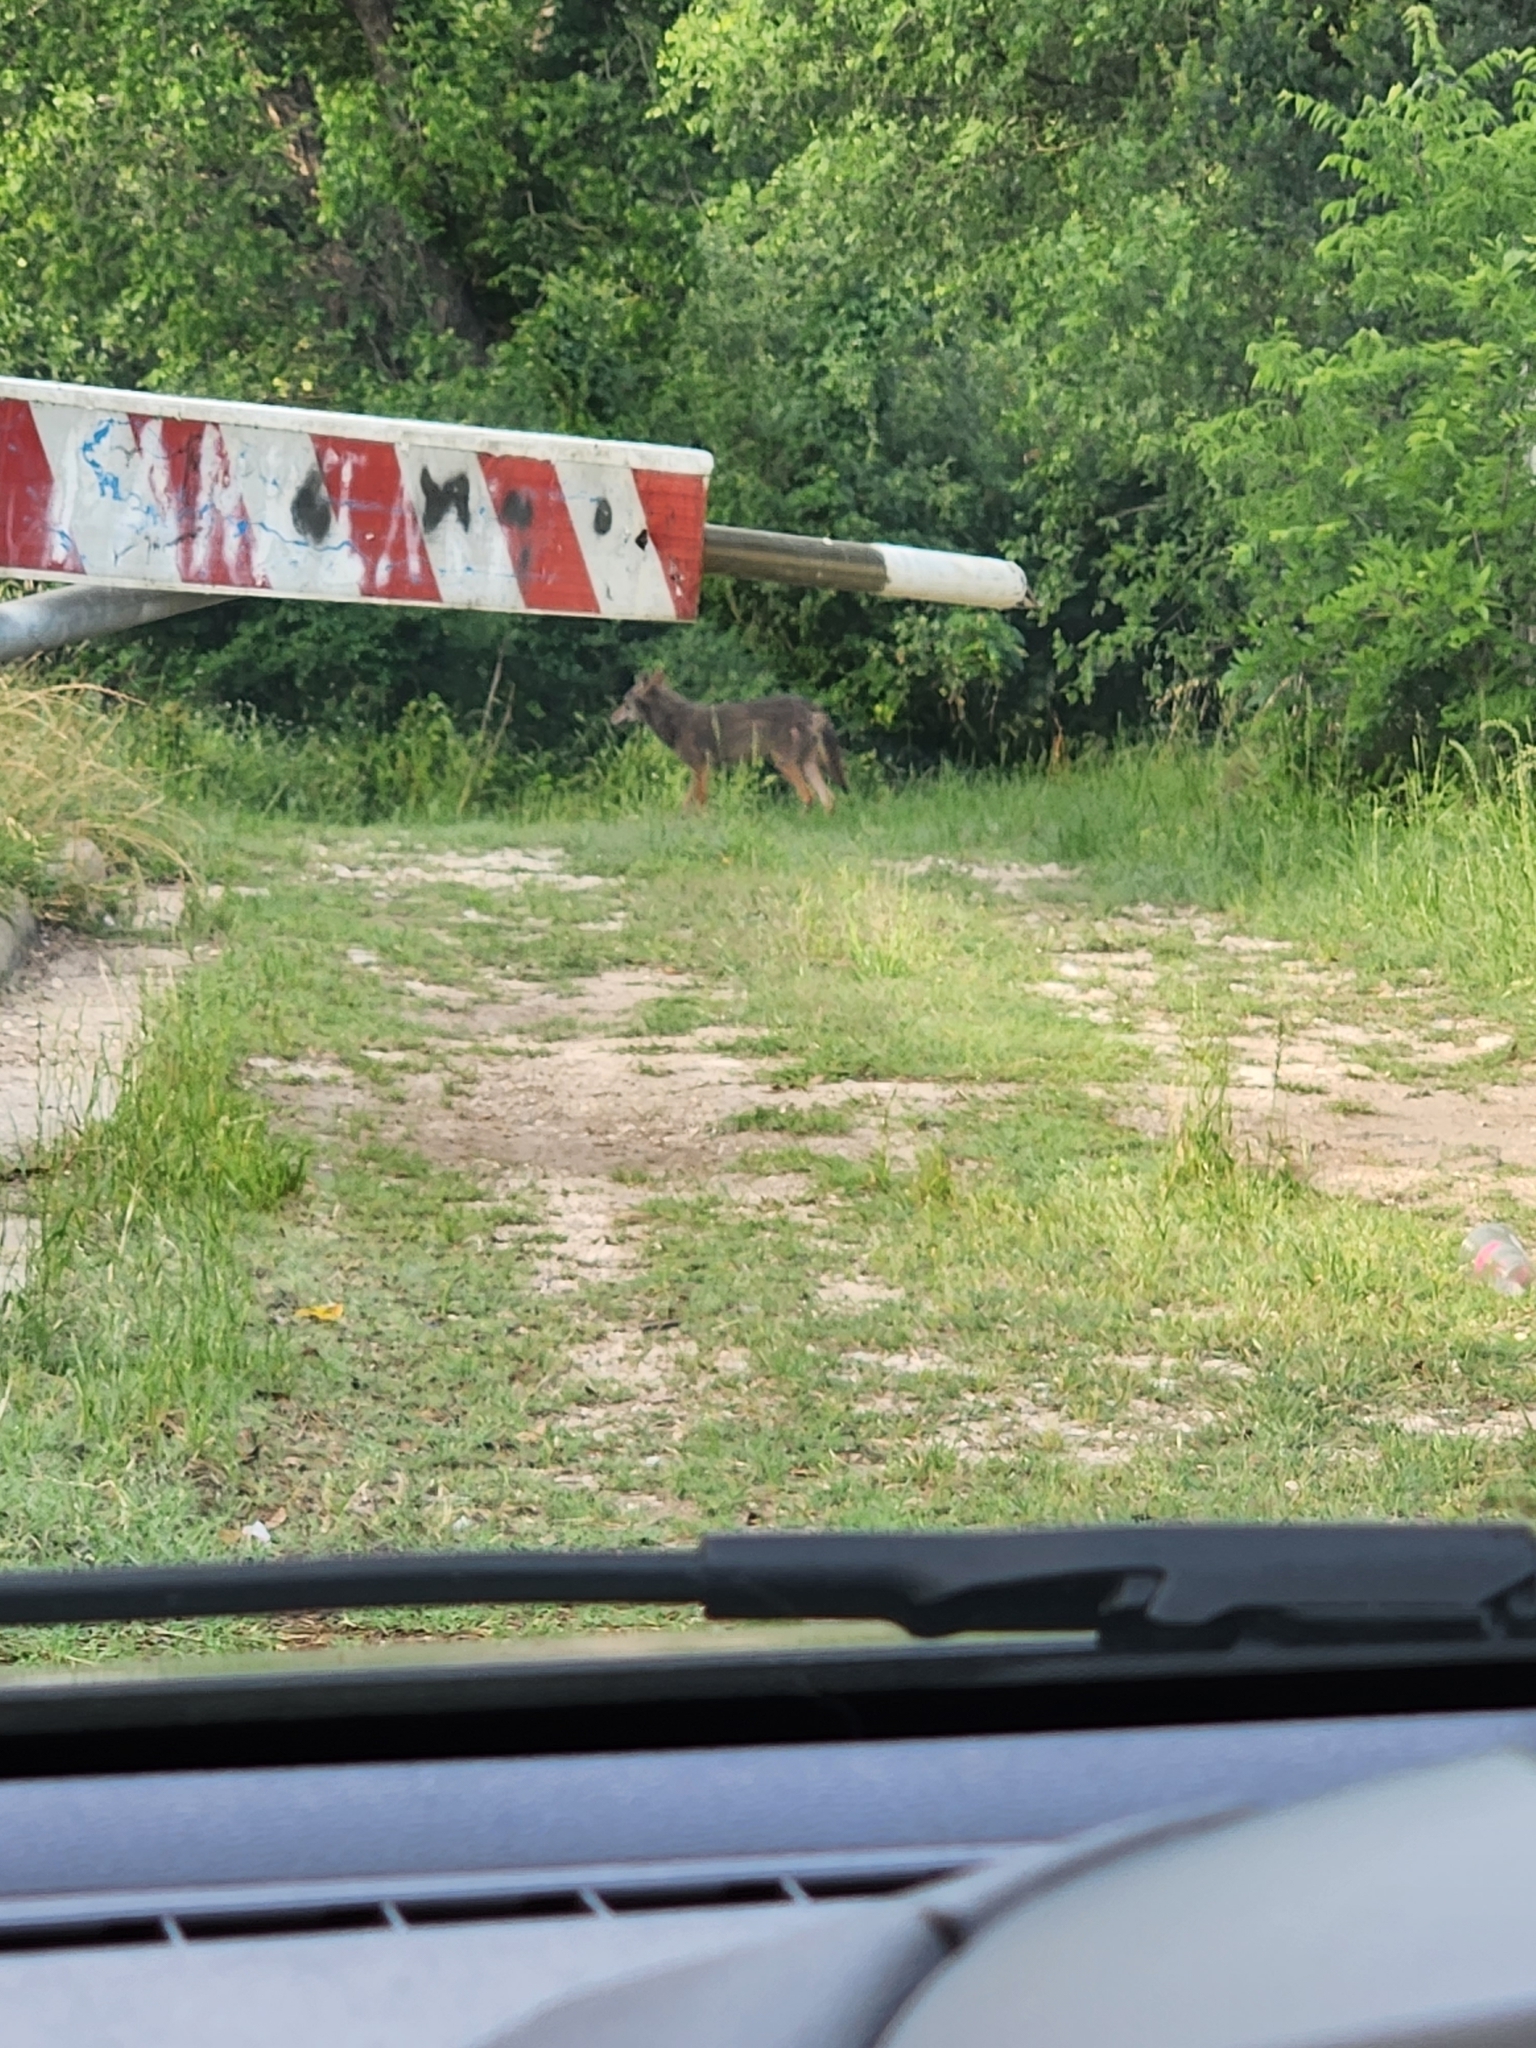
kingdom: Animalia
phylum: Chordata
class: Mammalia
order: Carnivora
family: Canidae
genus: Canis
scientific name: Canis latrans
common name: Coyote
